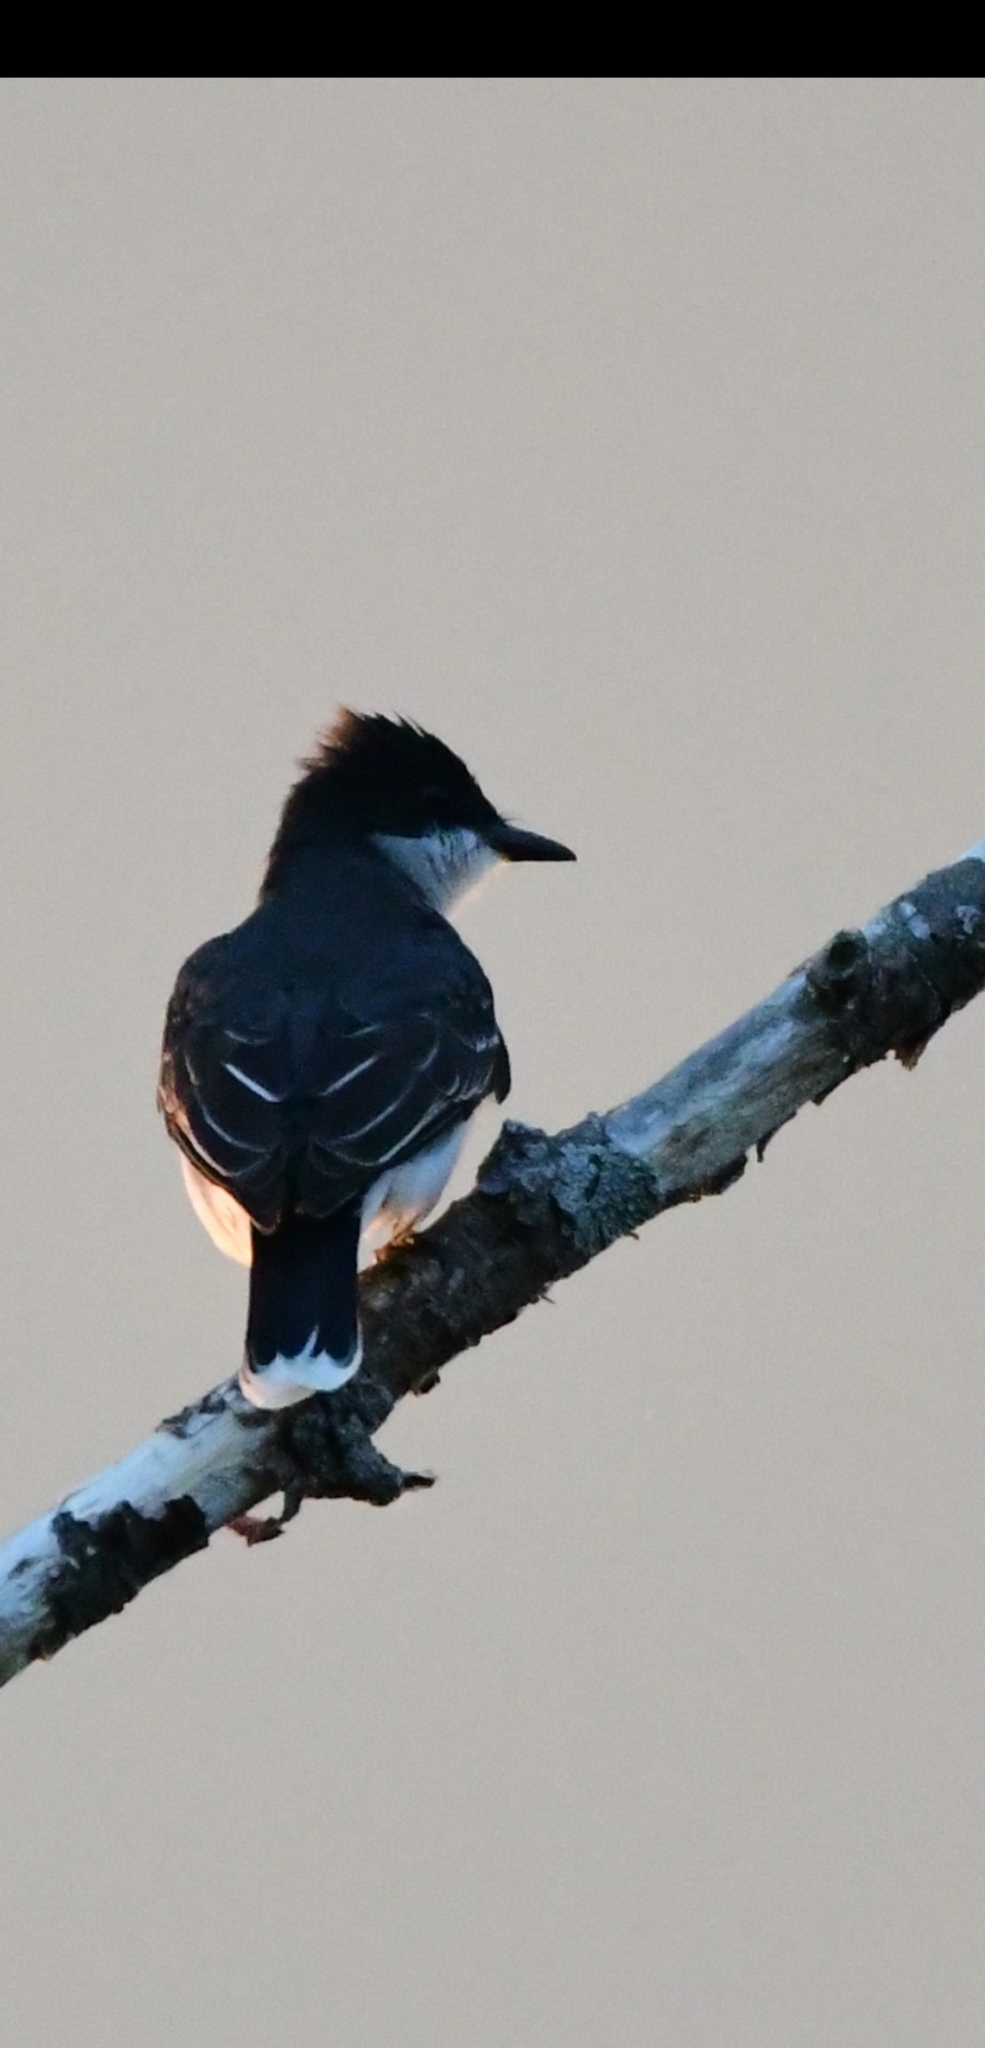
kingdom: Animalia
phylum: Chordata
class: Aves
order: Passeriformes
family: Tyrannidae
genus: Tyrannus
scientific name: Tyrannus tyrannus
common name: Eastern kingbird
